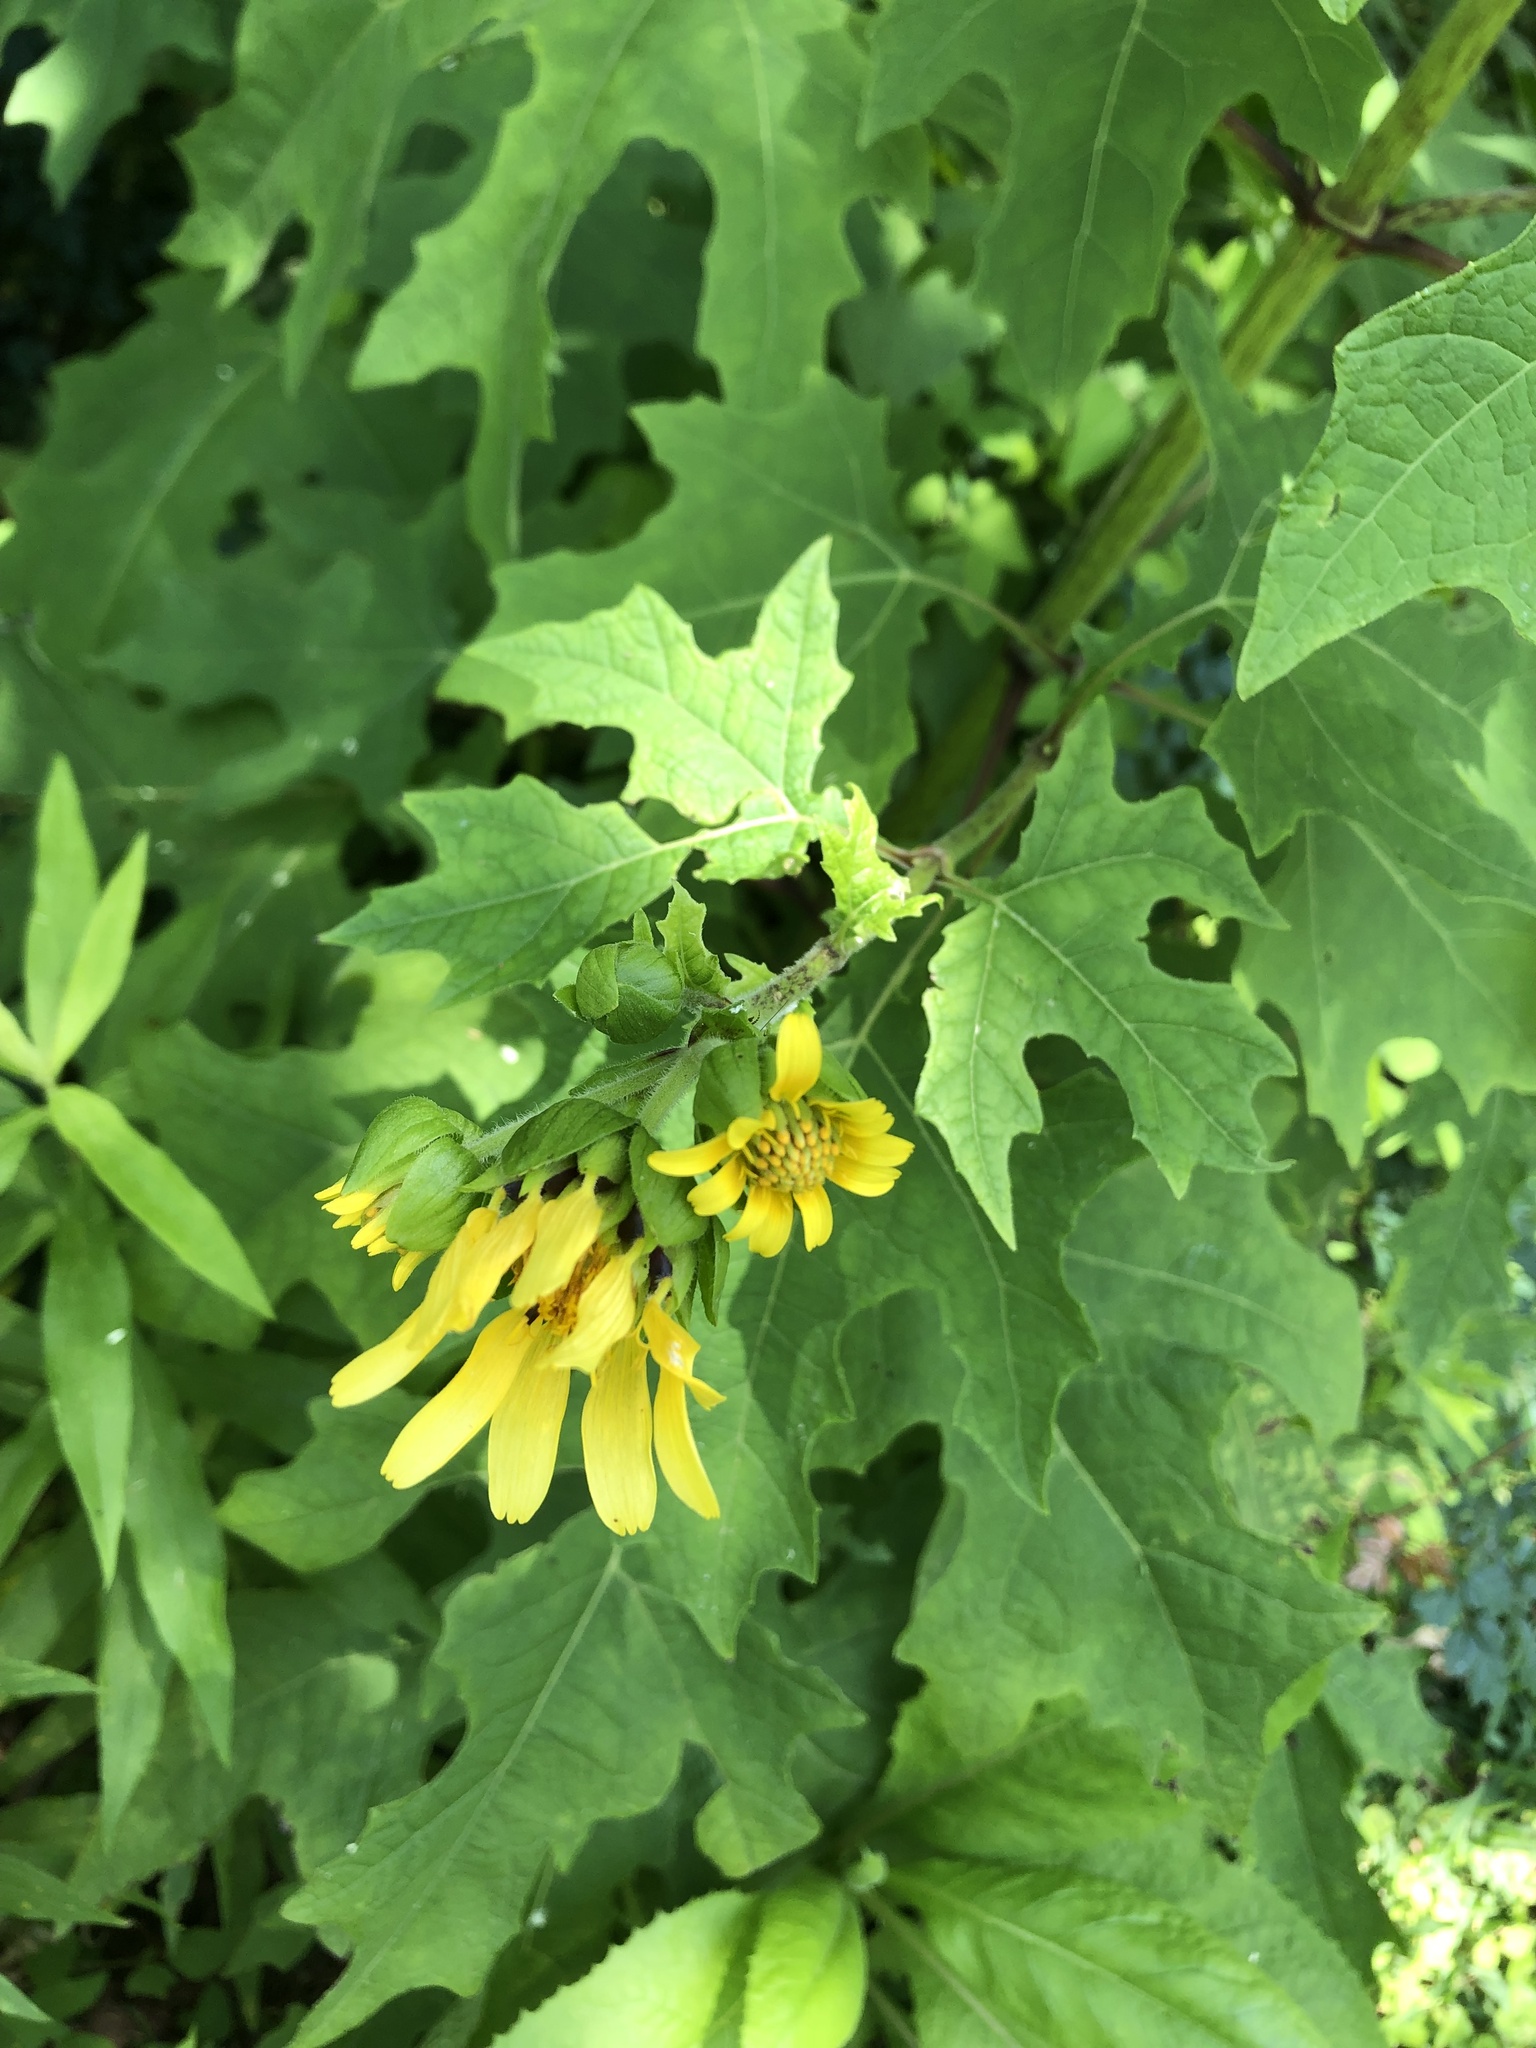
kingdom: Plantae
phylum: Tracheophyta
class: Magnoliopsida
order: Asterales
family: Asteraceae
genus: Smallanthus
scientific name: Smallanthus uvedalia
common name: Bear's-foot
